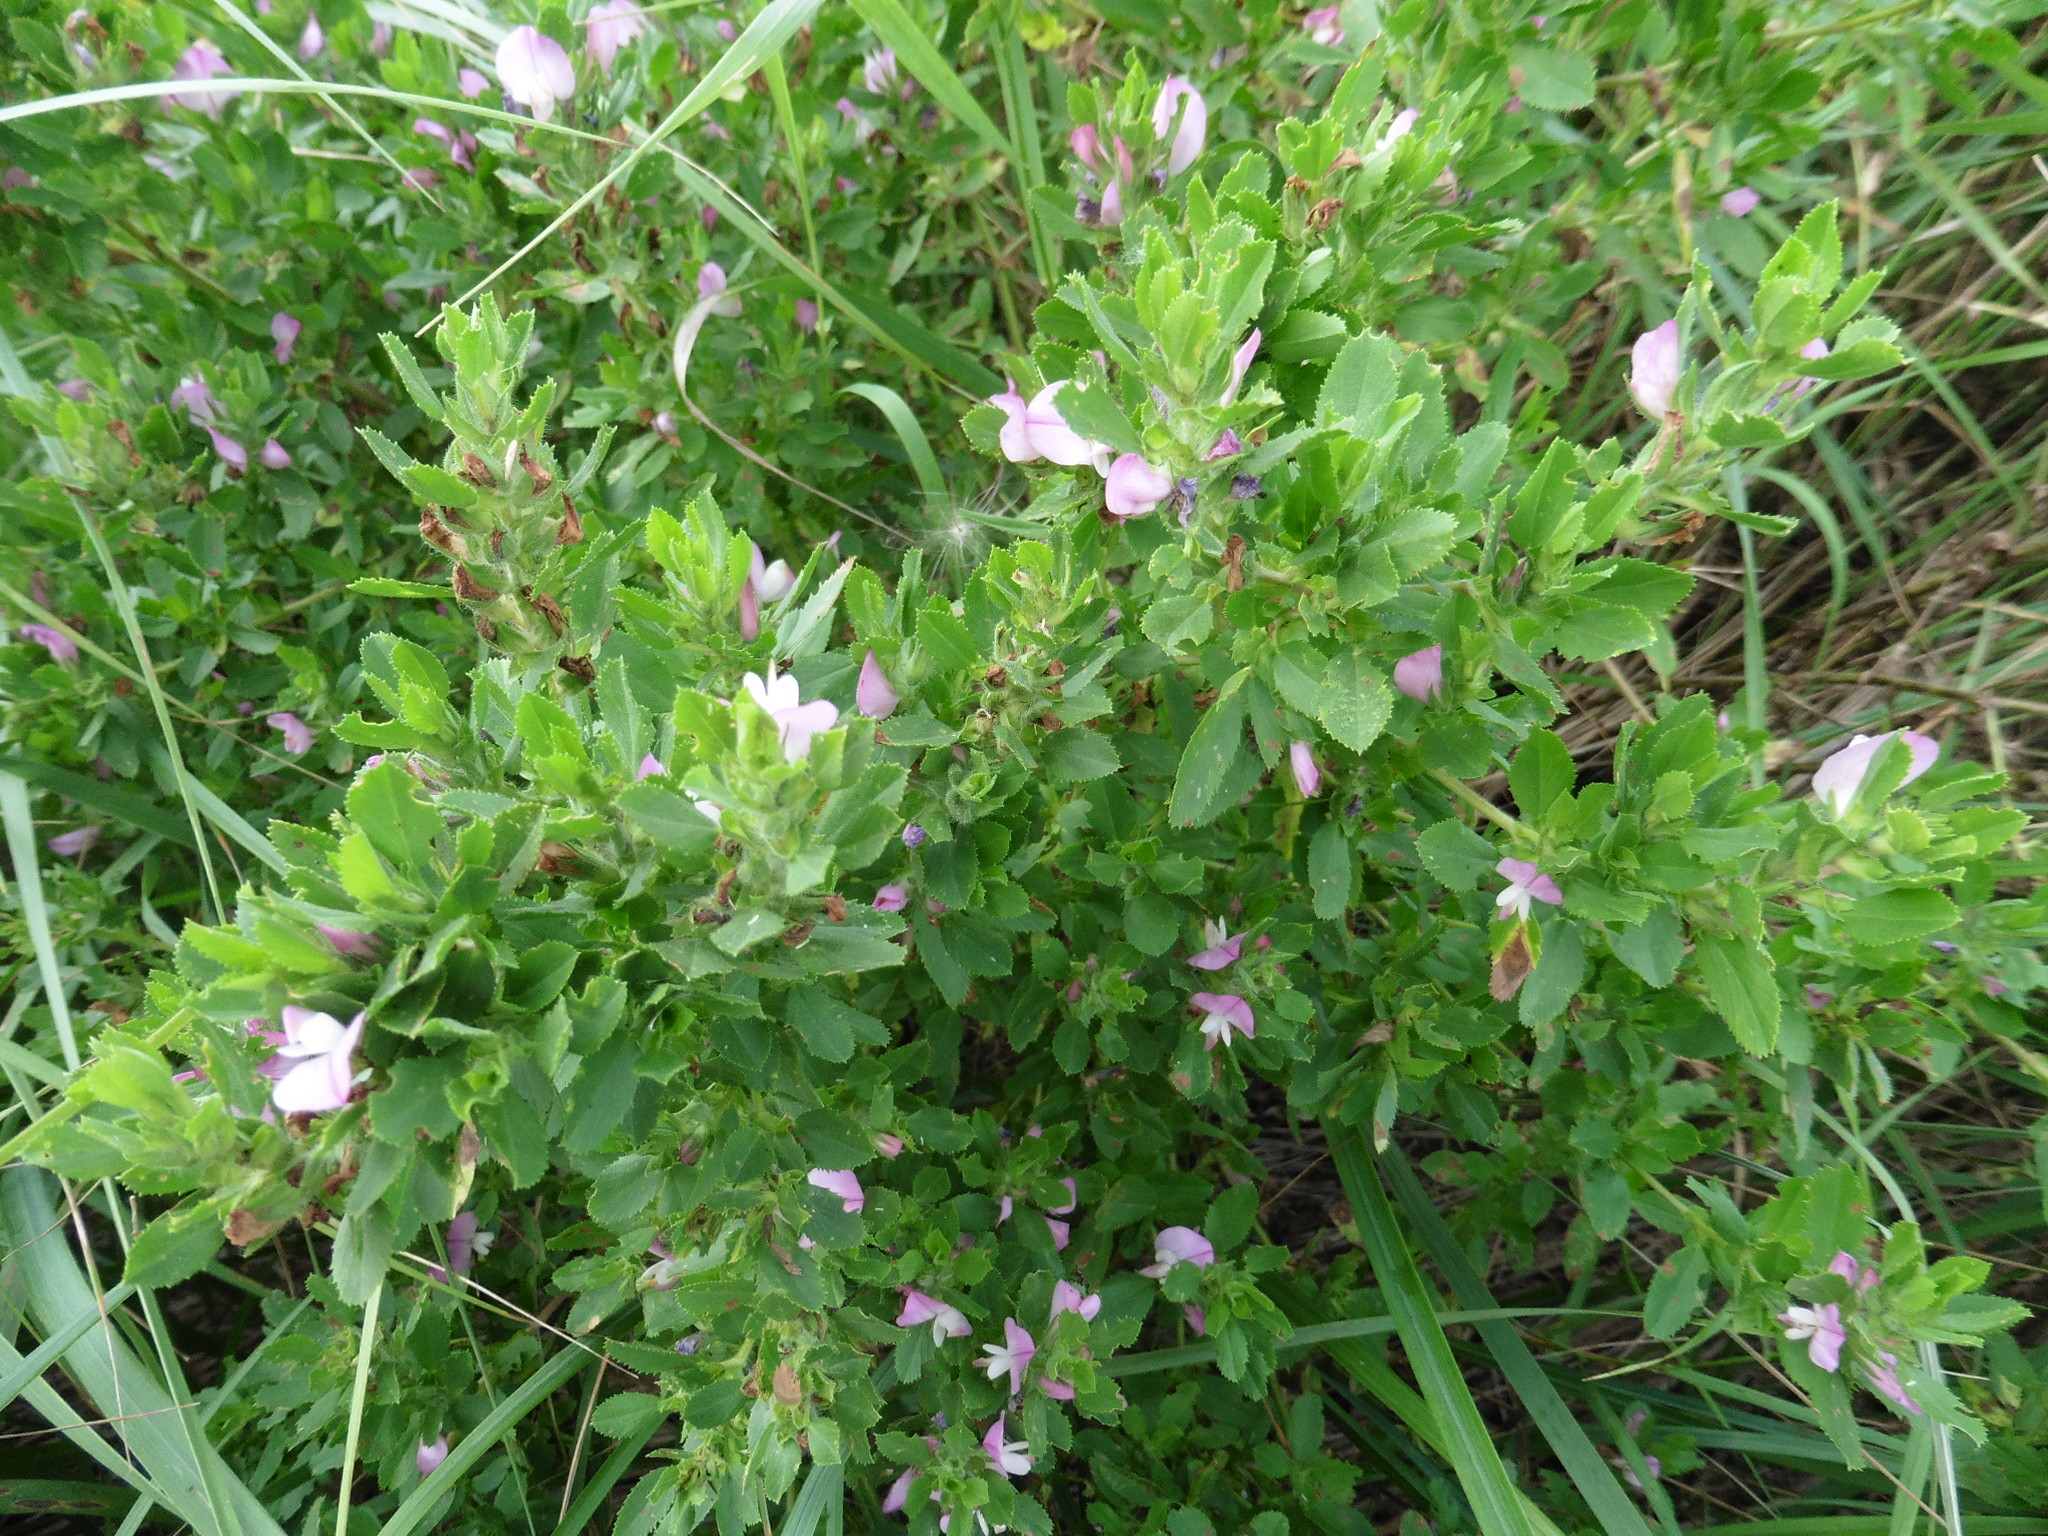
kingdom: Plantae
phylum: Tracheophyta
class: Magnoliopsida
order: Fabales
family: Fabaceae
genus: Ononis
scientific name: Ononis arvensis
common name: Field restharrow
